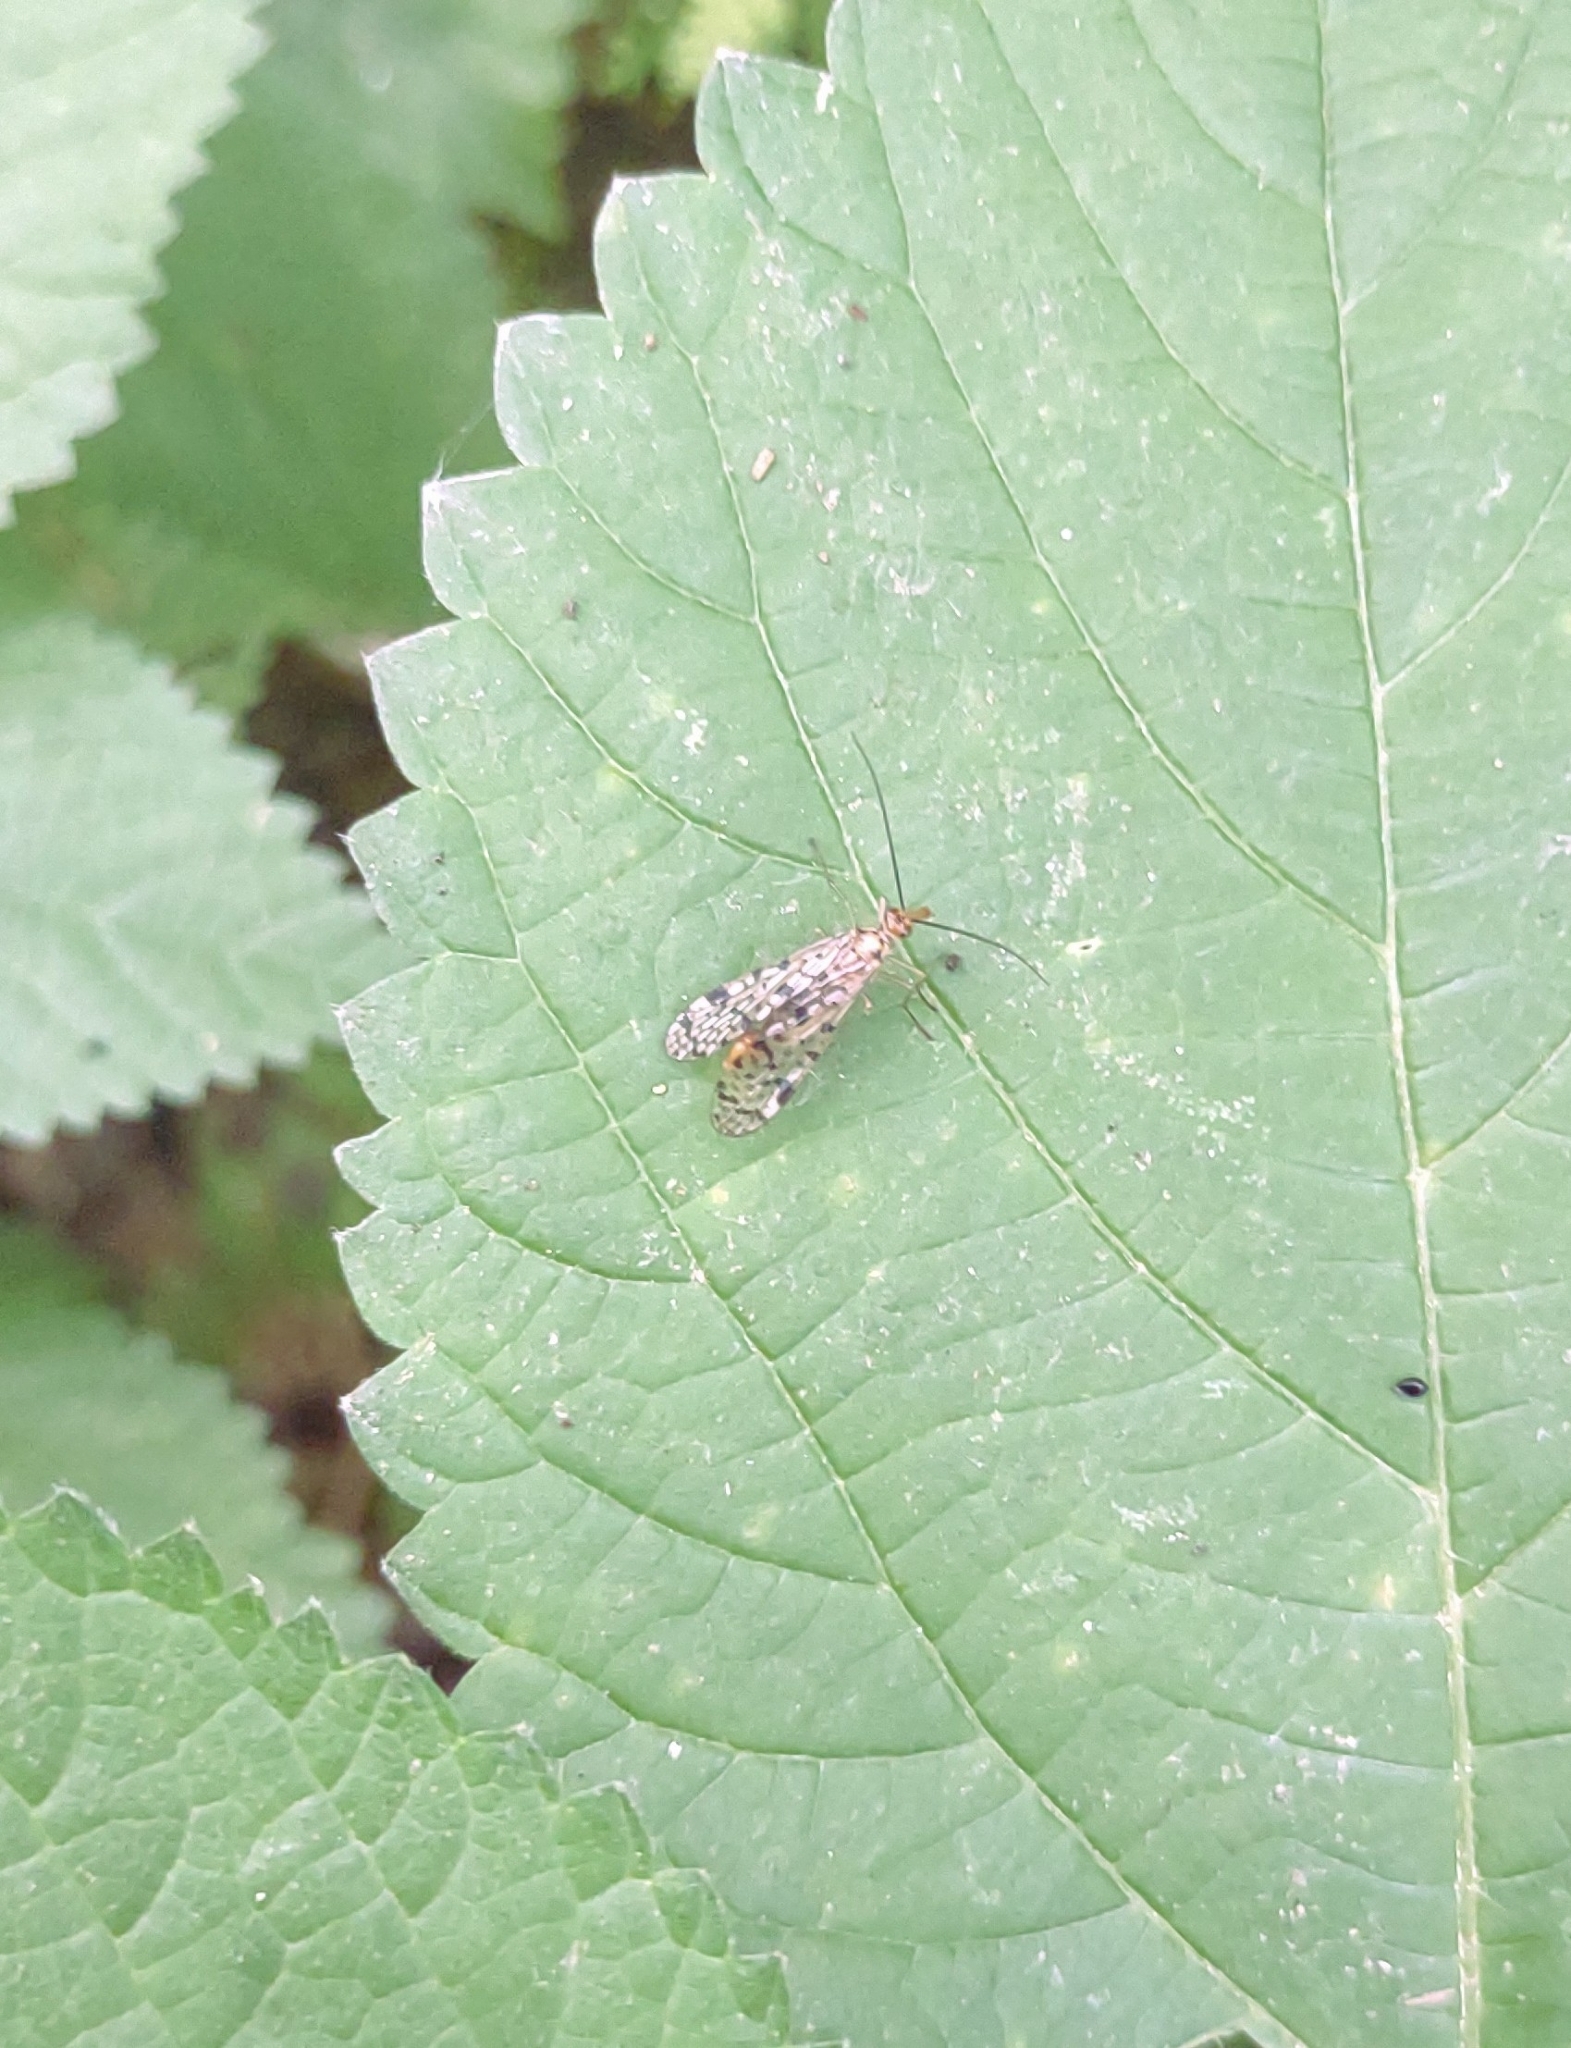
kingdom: Animalia
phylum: Arthropoda
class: Insecta
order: Mecoptera
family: Panorpidae
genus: Panorpa
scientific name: Panorpa
